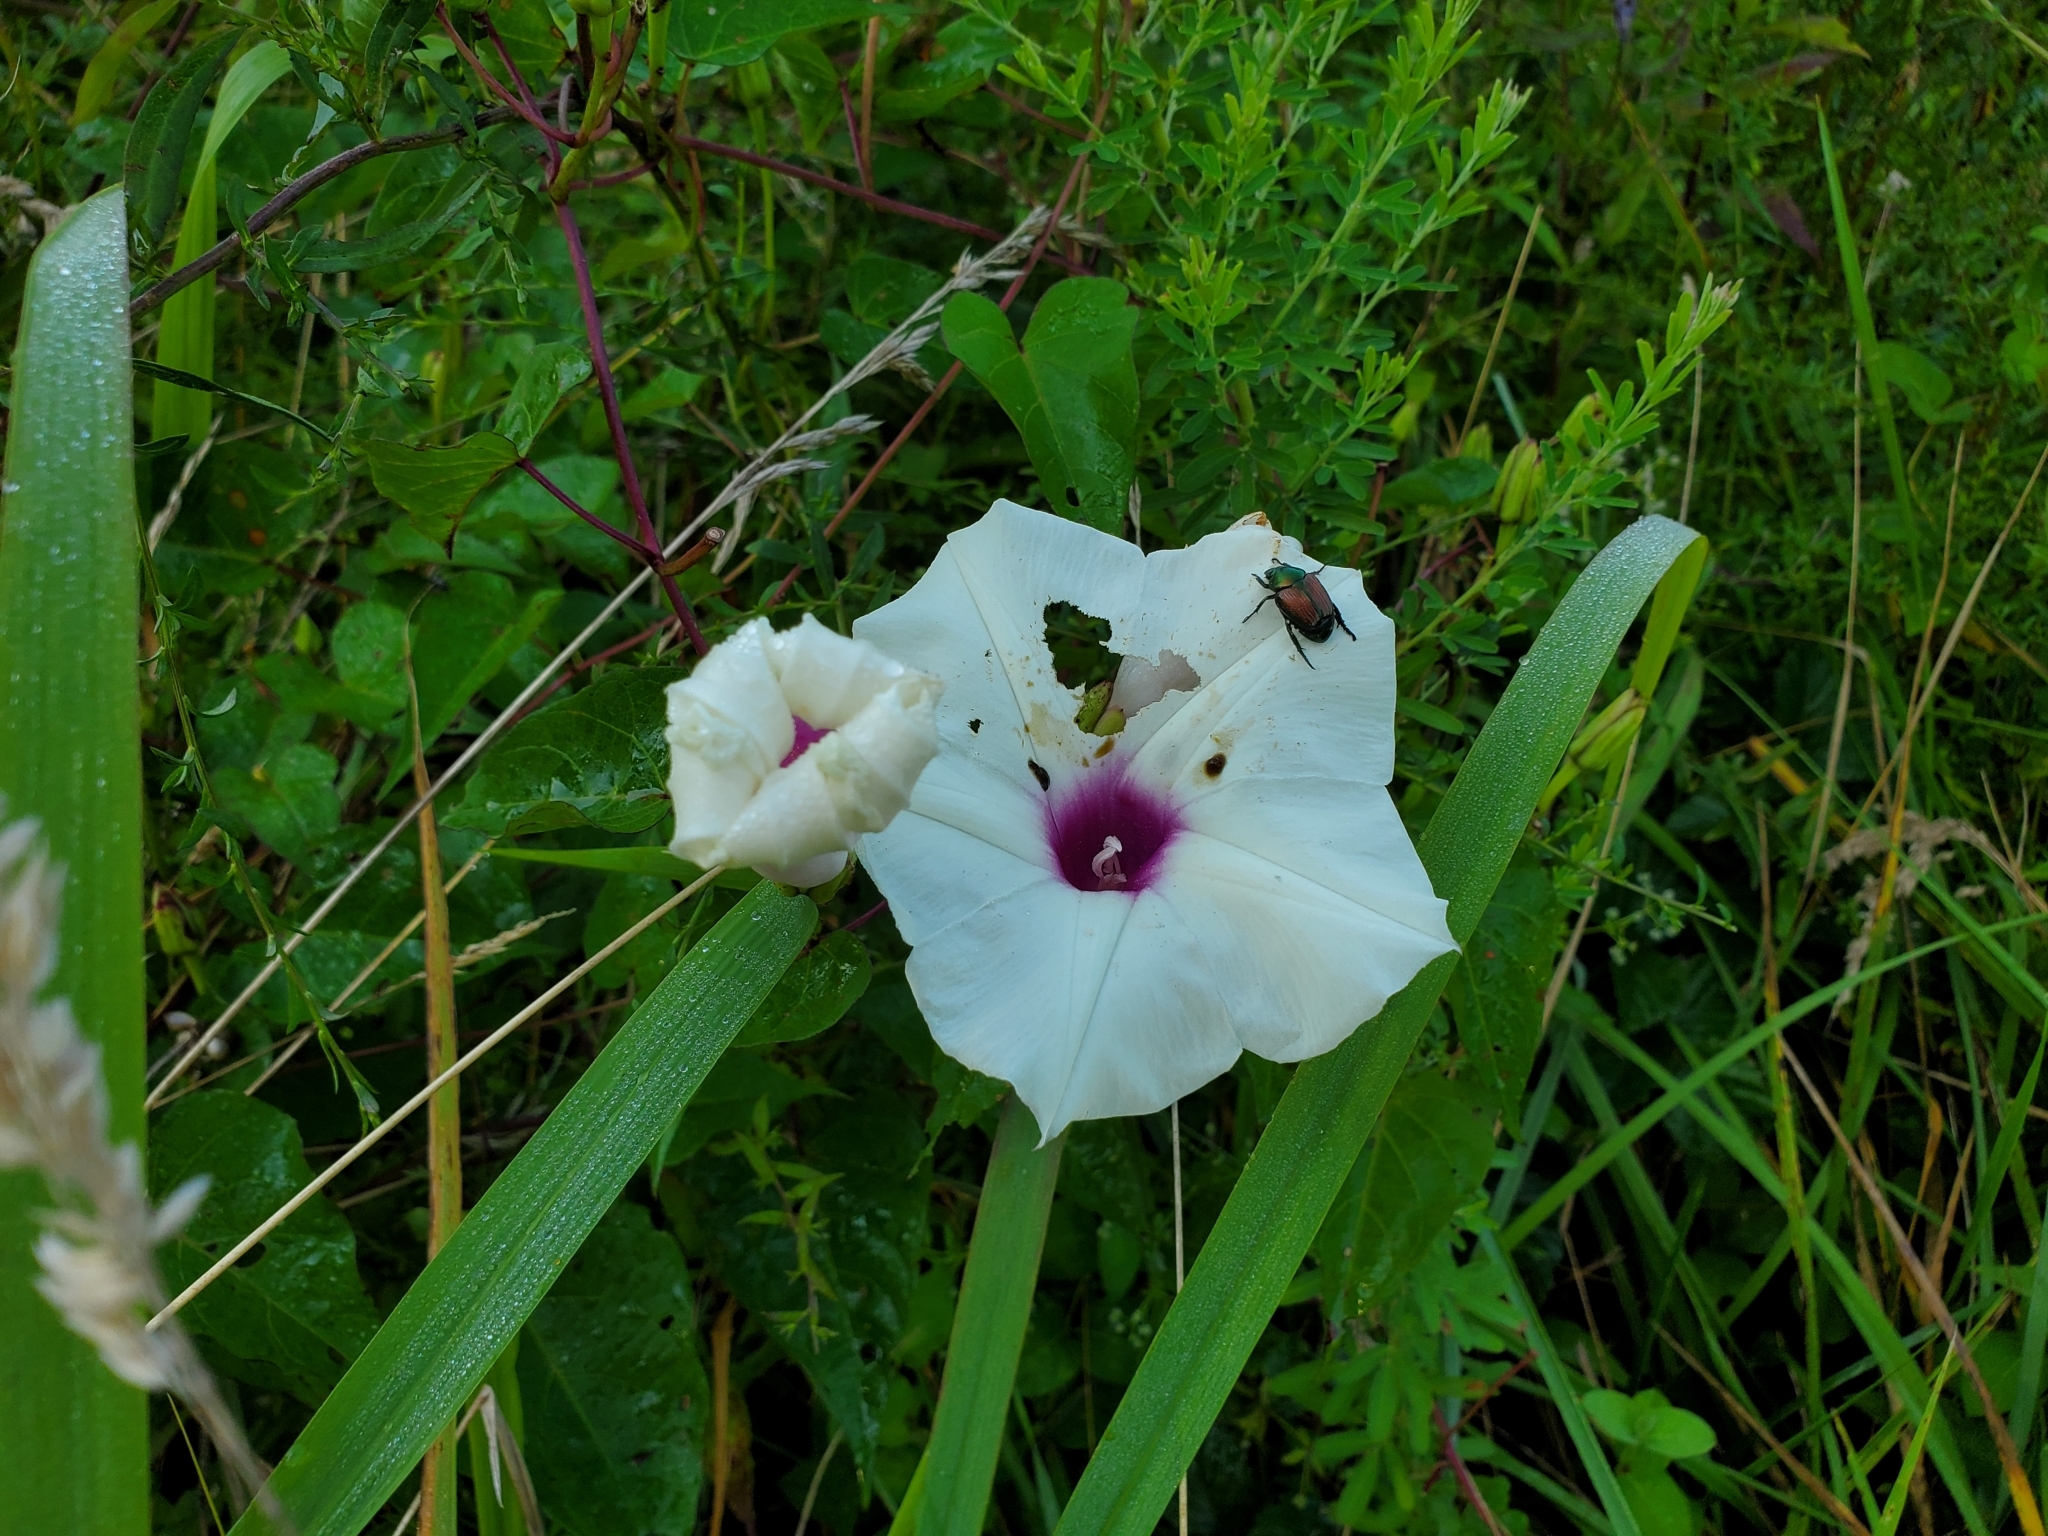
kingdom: Plantae
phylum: Tracheophyta
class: Magnoliopsida
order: Solanales
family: Convolvulaceae
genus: Ipomoea
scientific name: Ipomoea pandurata
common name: Man-of-the-earth
